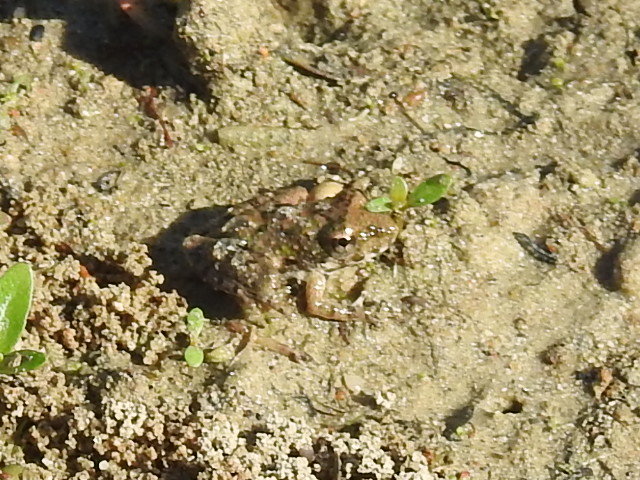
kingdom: Animalia
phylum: Chordata
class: Amphibia
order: Anura
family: Hylidae
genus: Acris
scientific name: Acris blanchardi
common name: Blanchard's cricket frog
